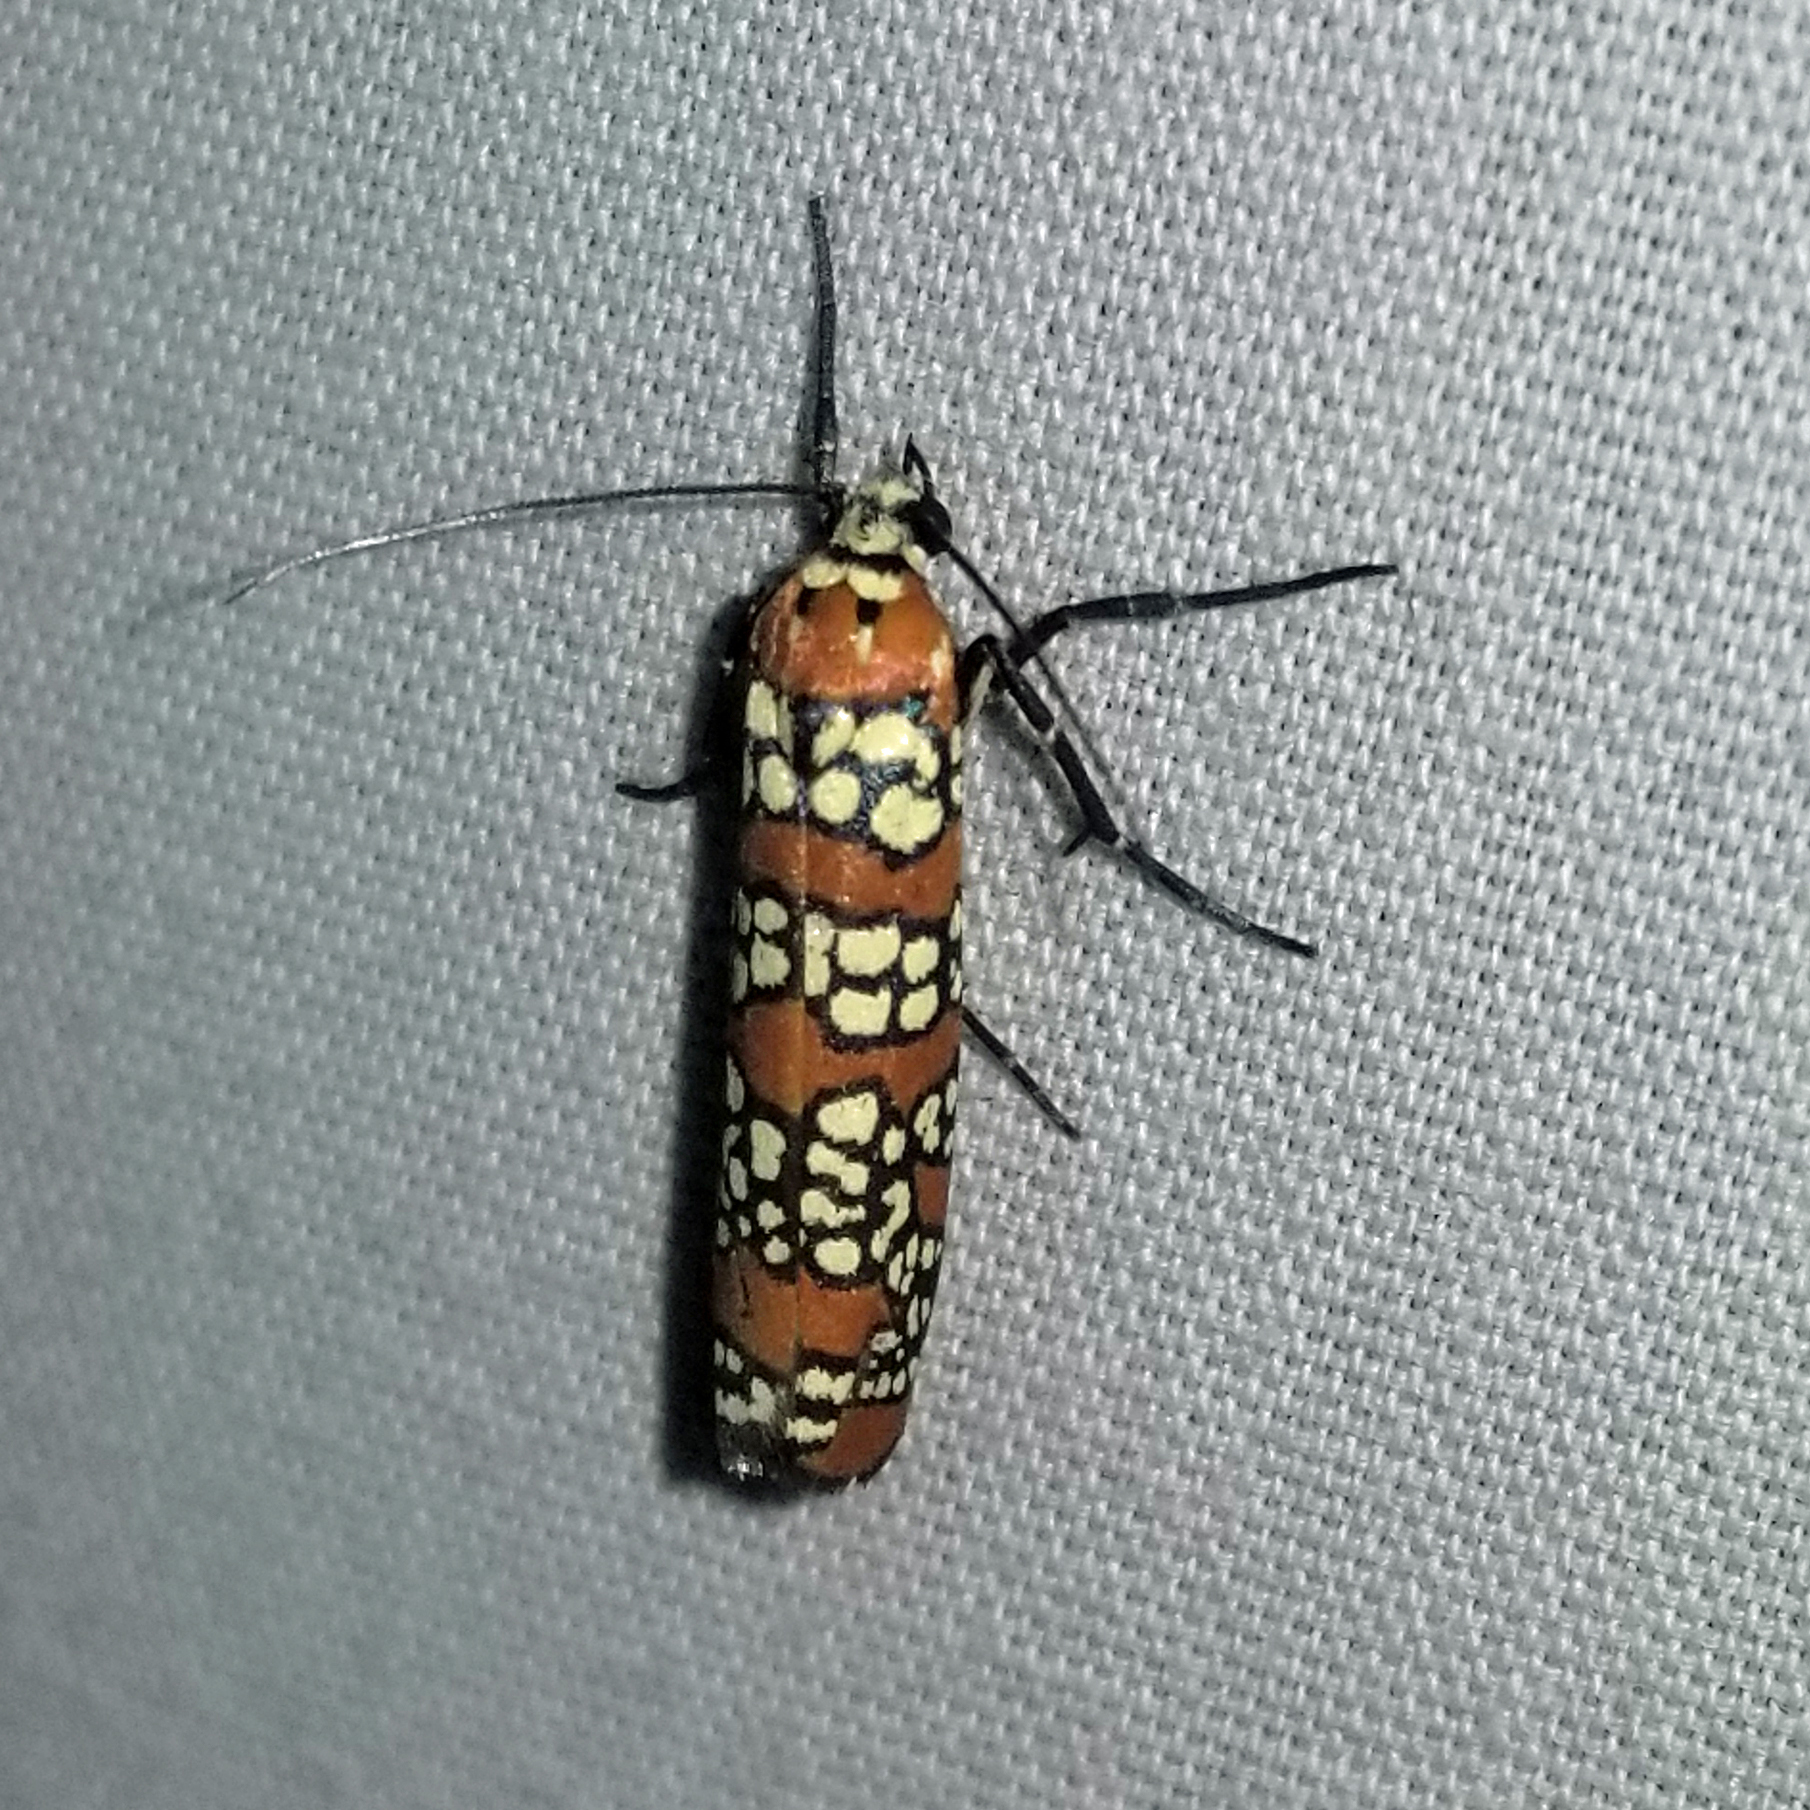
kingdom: Animalia
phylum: Arthropoda
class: Insecta
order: Lepidoptera
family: Attevidae
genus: Atteva
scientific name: Atteva punctella
